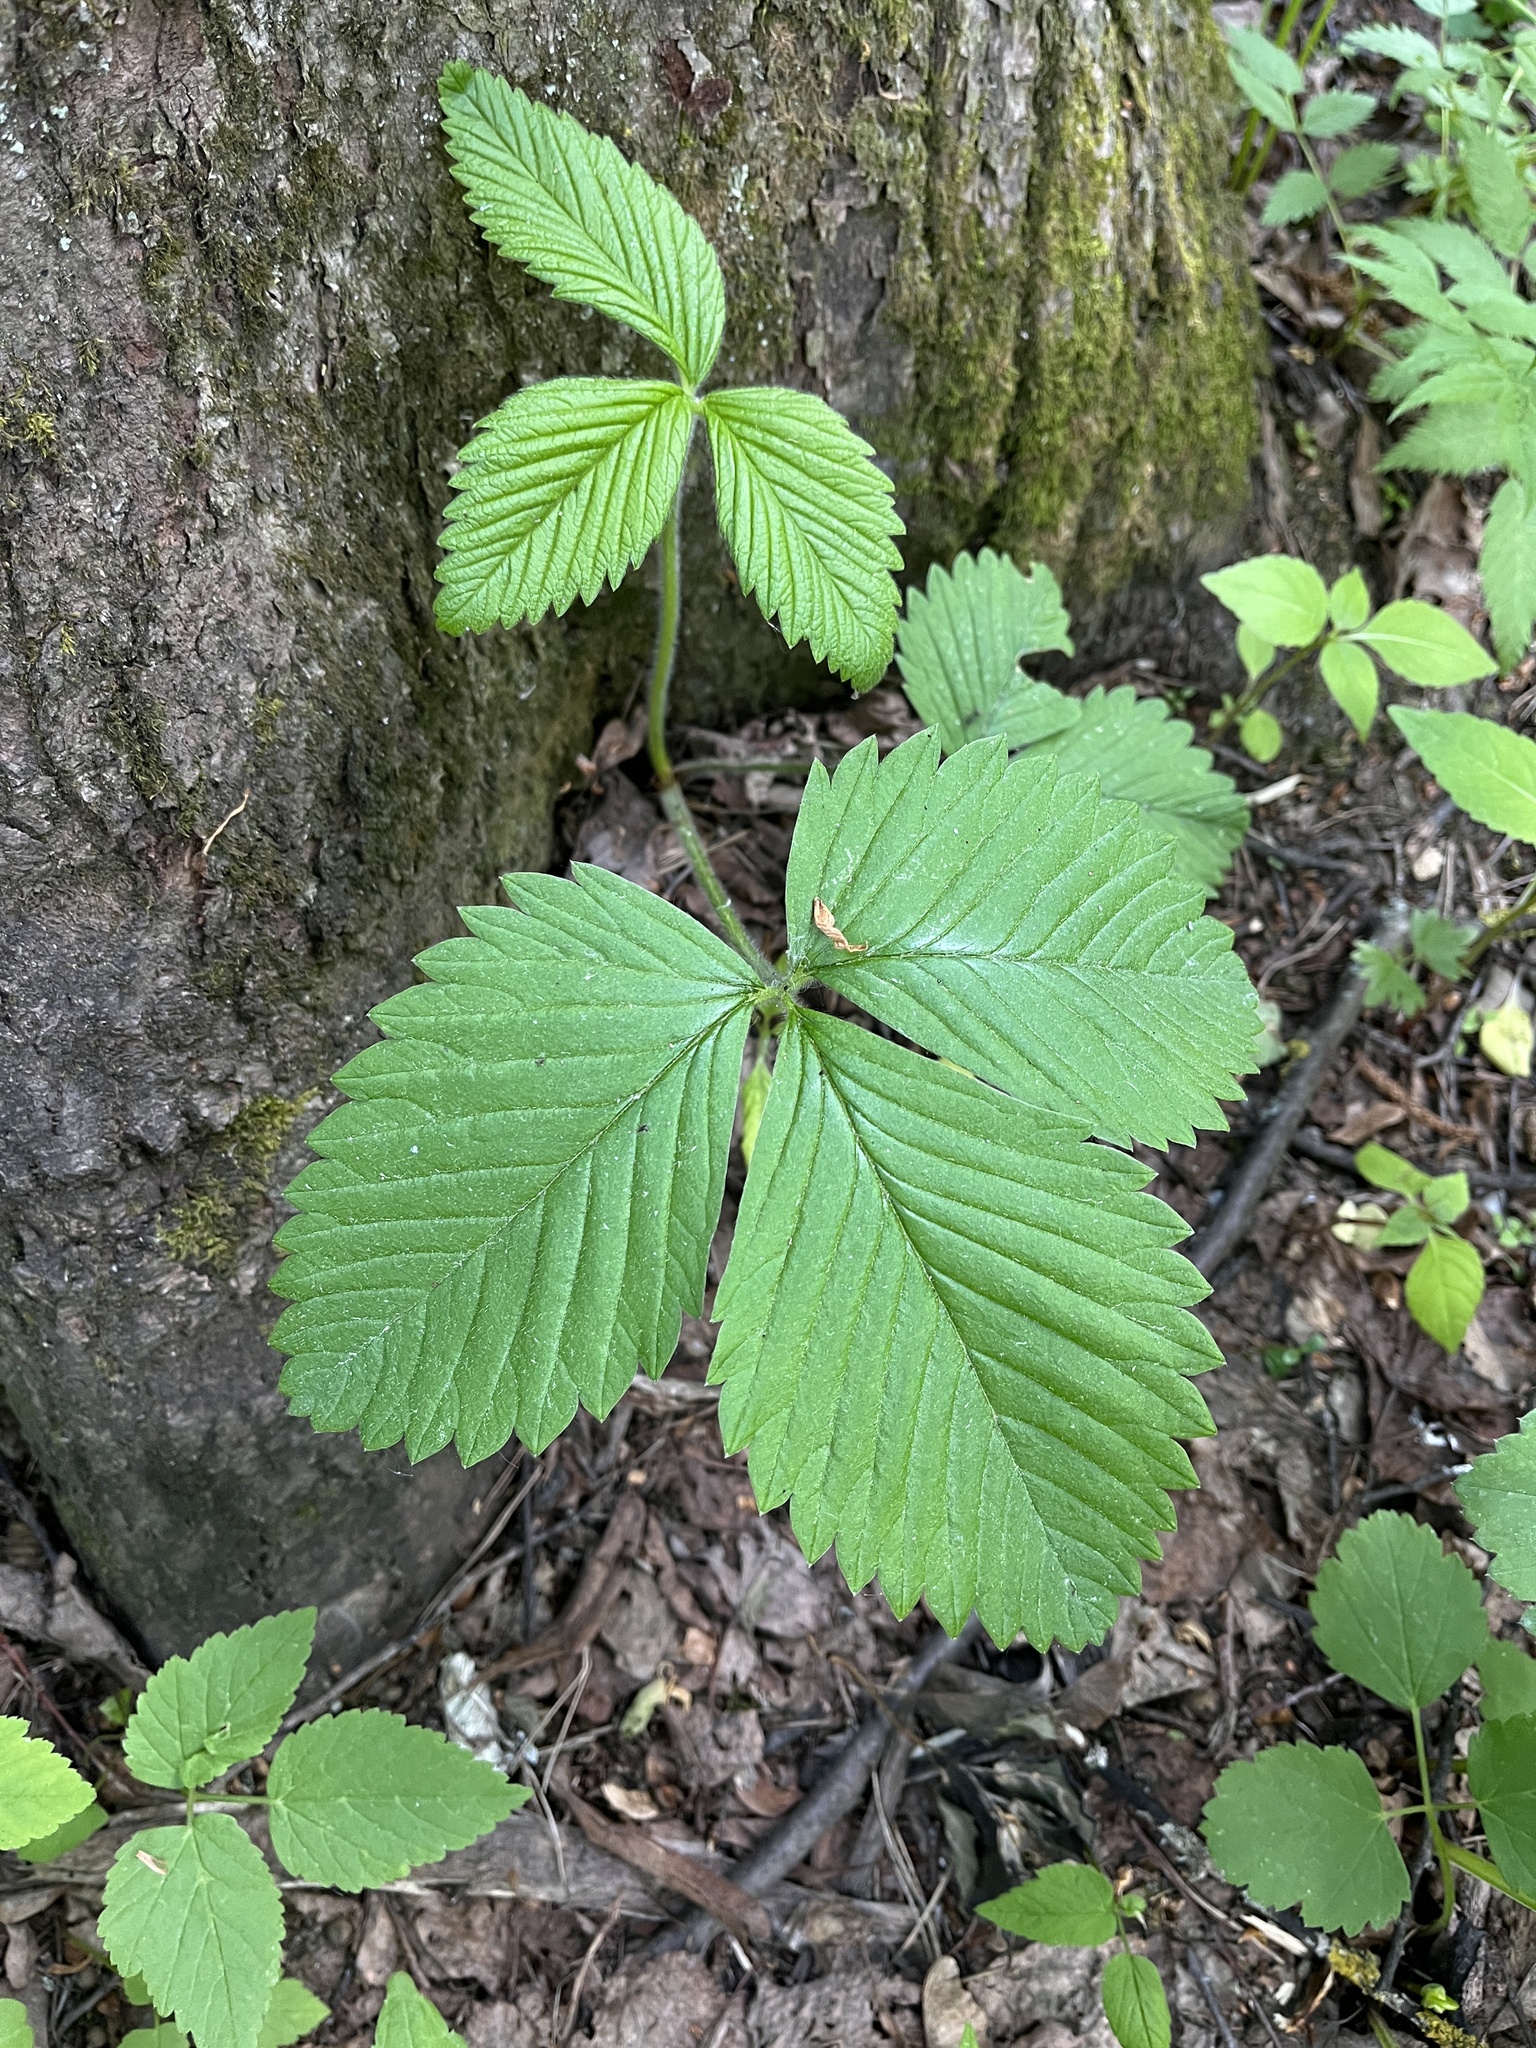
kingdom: Plantae
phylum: Tracheophyta
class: Magnoliopsida
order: Rosales
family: Rosaceae
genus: Fragaria
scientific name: Fragaria moschata
